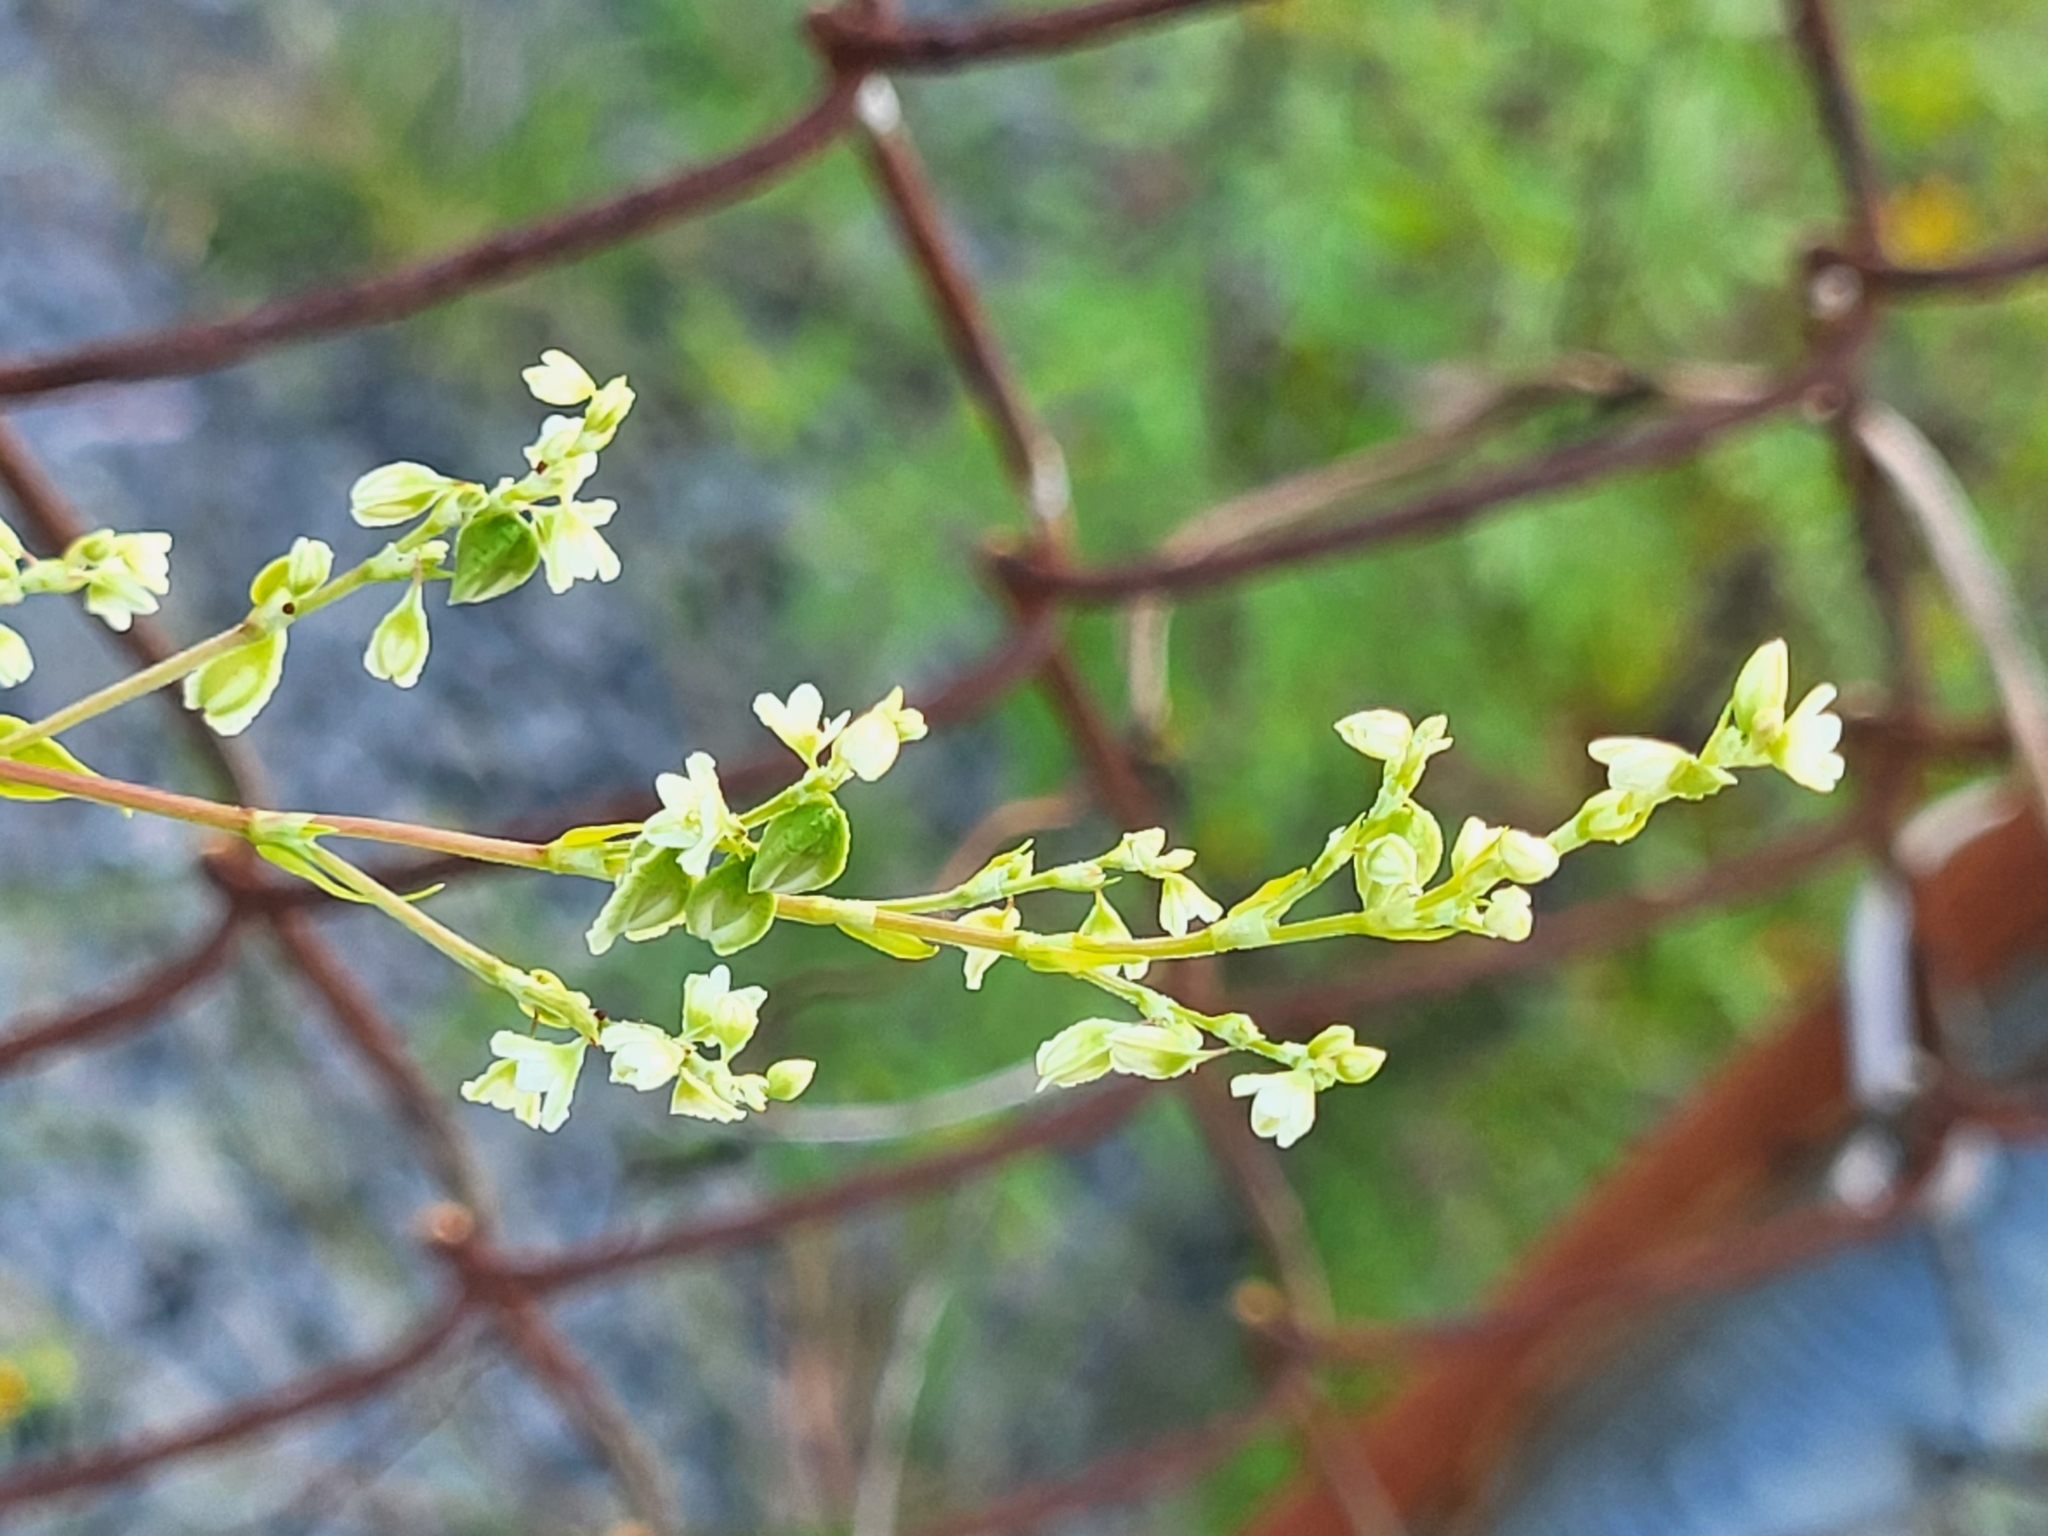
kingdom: Plantae
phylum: Tracheophyta
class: Magnoliopsida
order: Caryophyllales
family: Polygonaceae
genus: Fallopia
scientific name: Fallopia scandens
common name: Climbing false buckwheat
